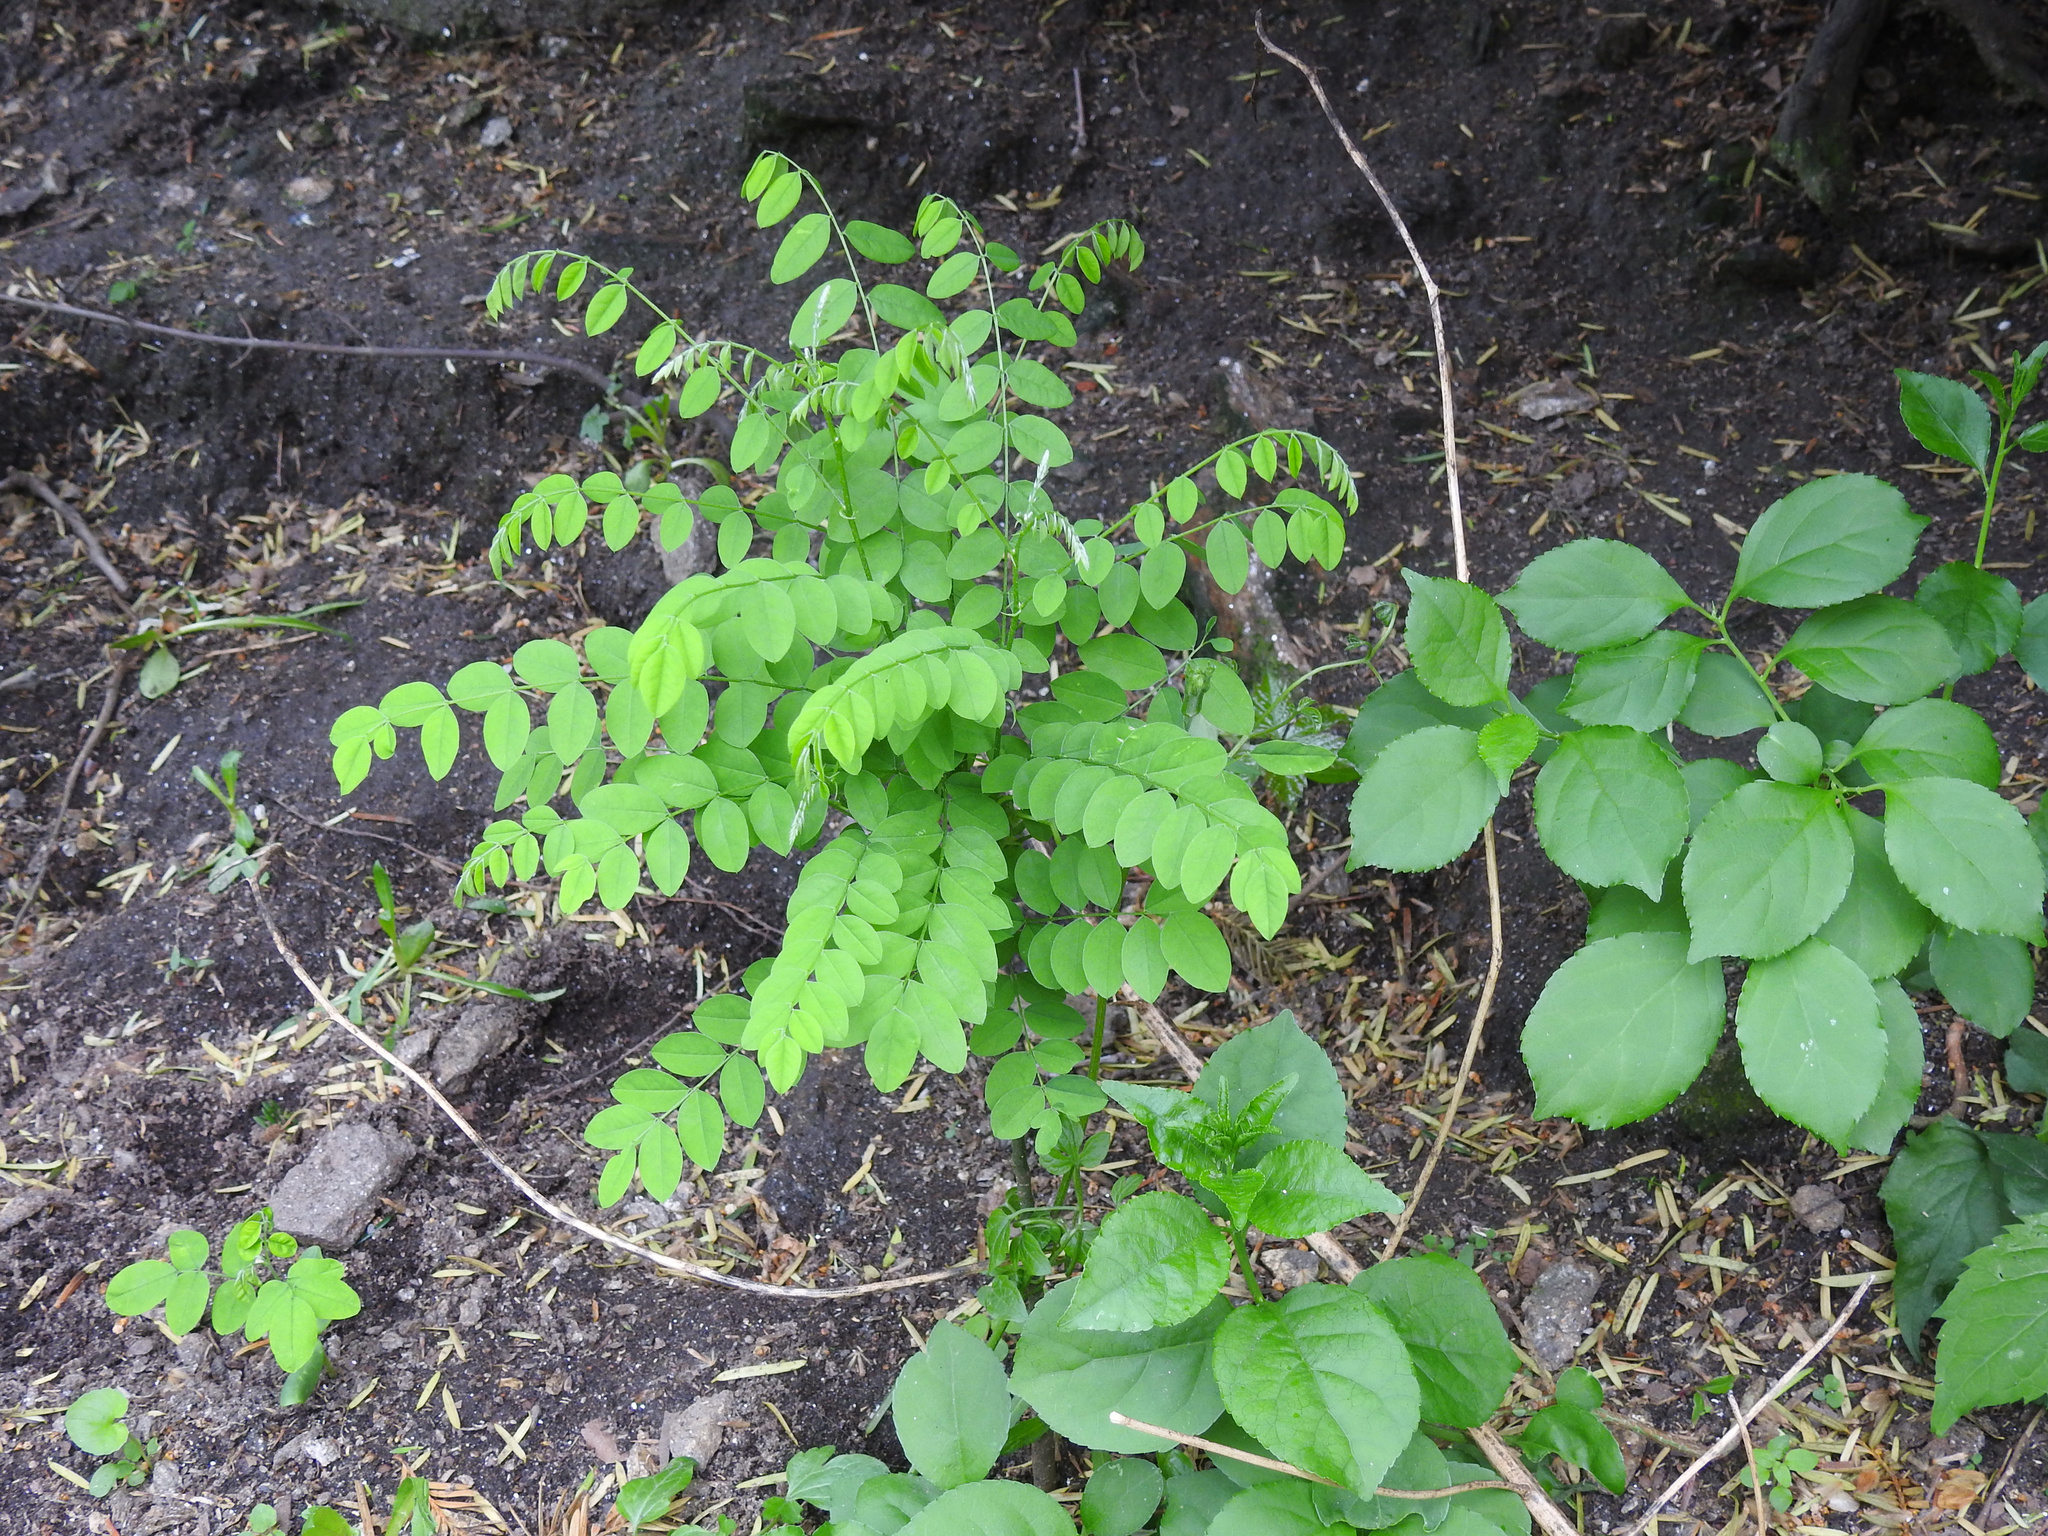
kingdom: Plantae
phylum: Tracheophyta
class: Magnoliopsida
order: Fabales
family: Fabaceae
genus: Robinia
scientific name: Robinia pseudoacacia
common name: Black locust
